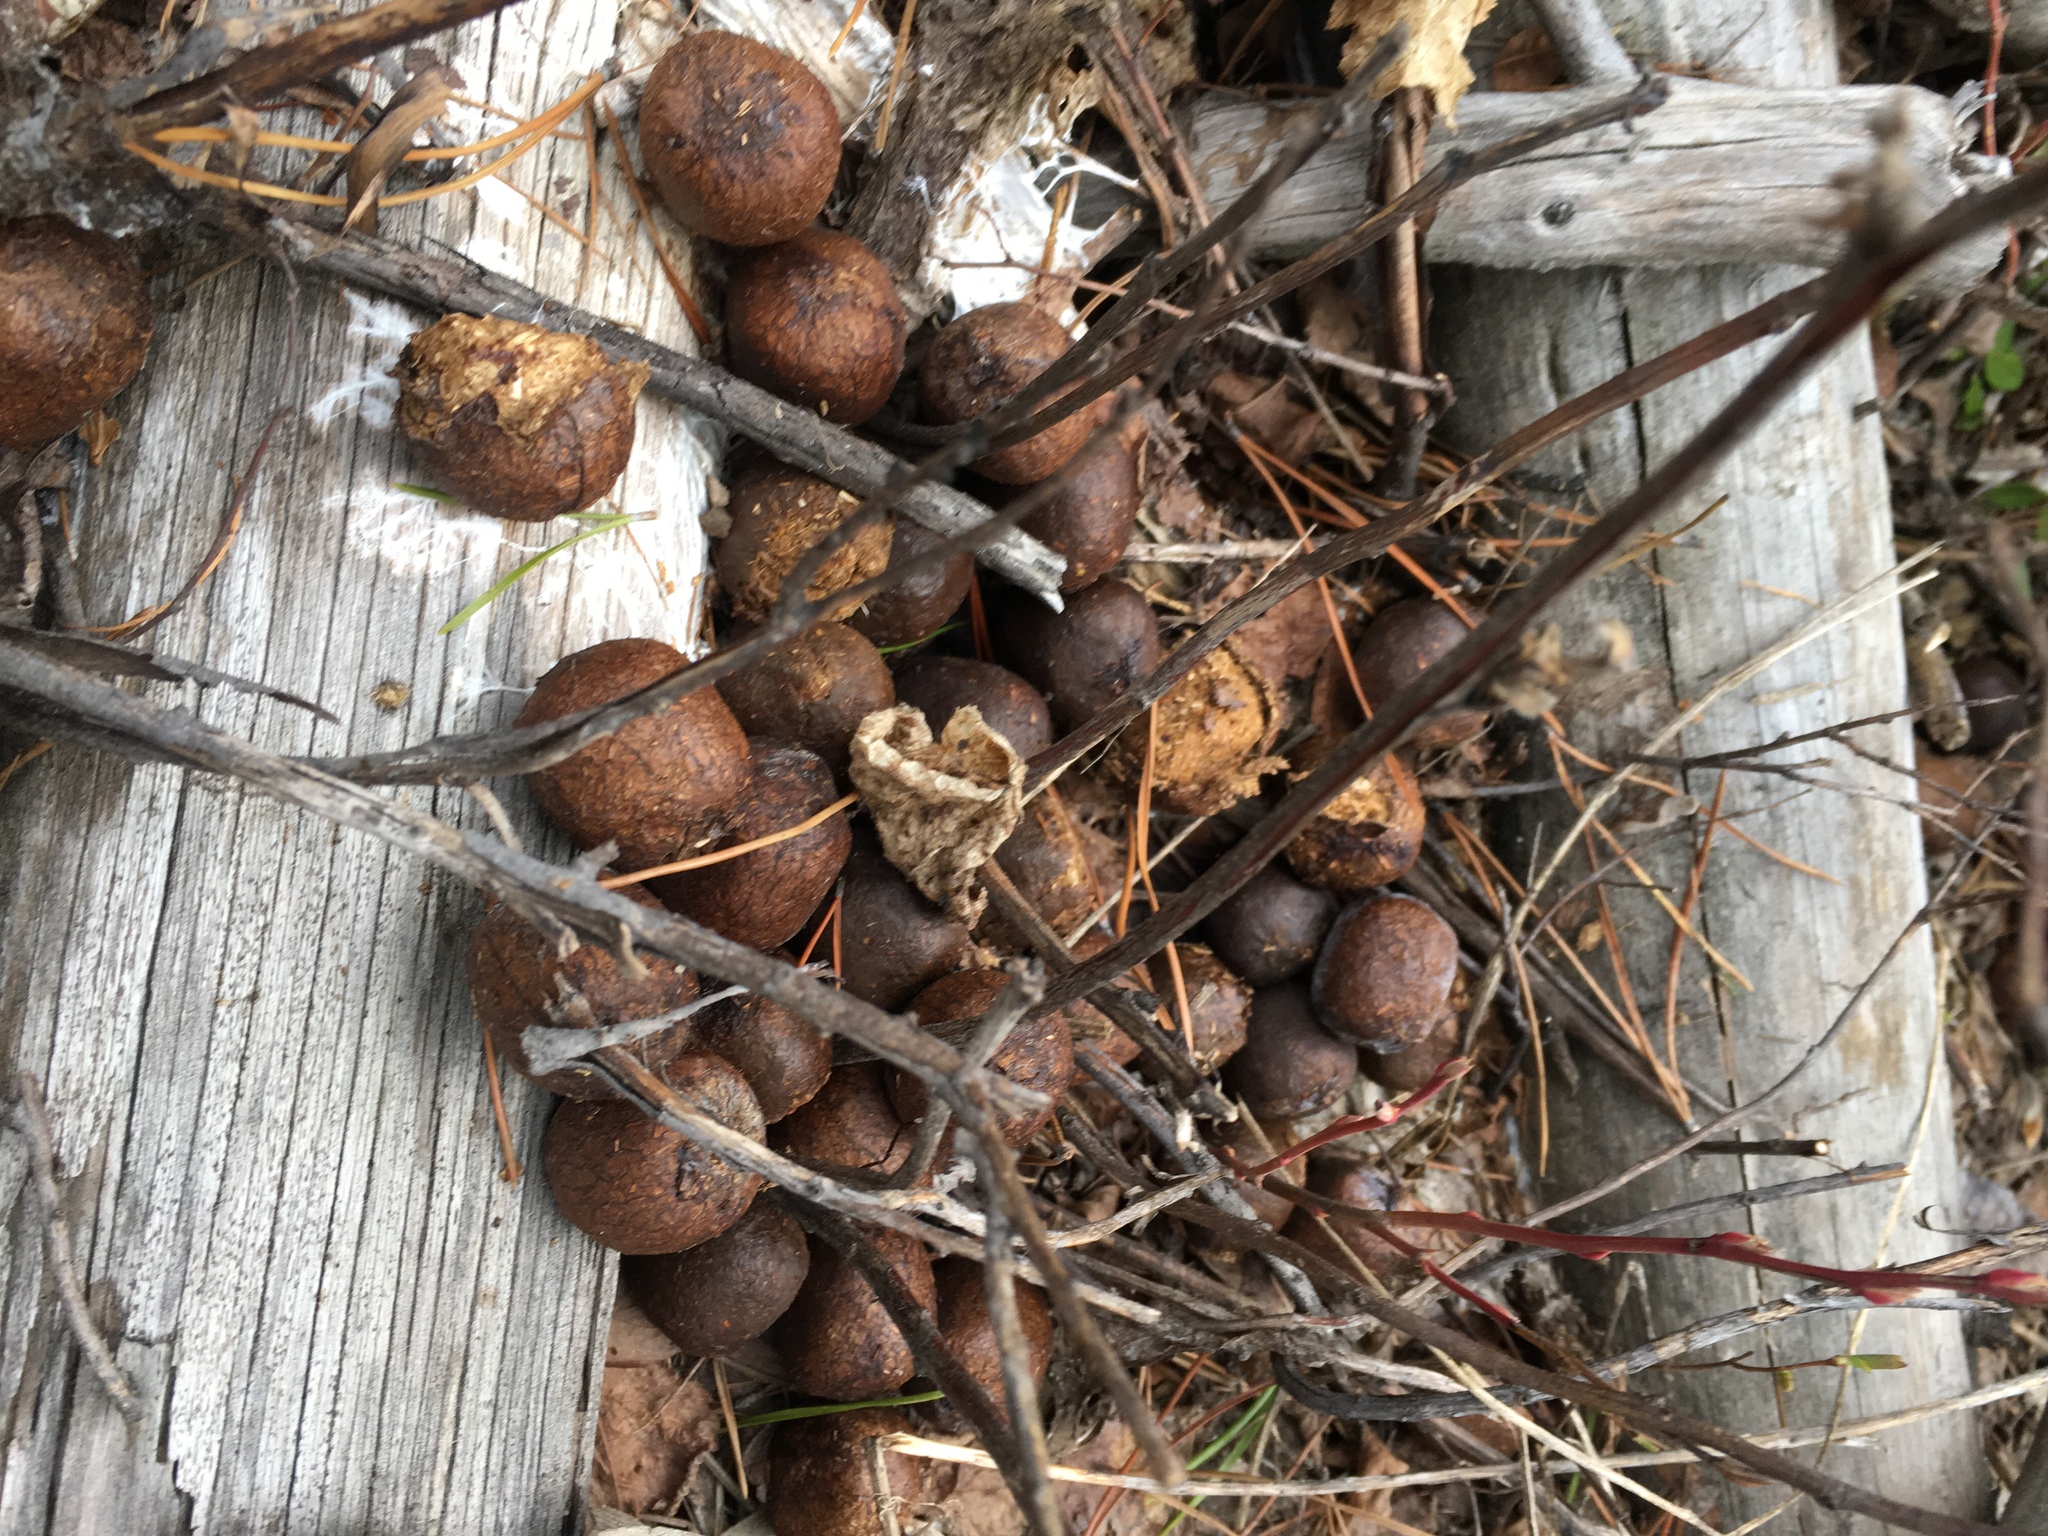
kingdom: Animalia
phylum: Chordata
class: Mammalia
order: Artiodactyla
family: Cervidae
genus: Alces
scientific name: Alces alces
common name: Moose
